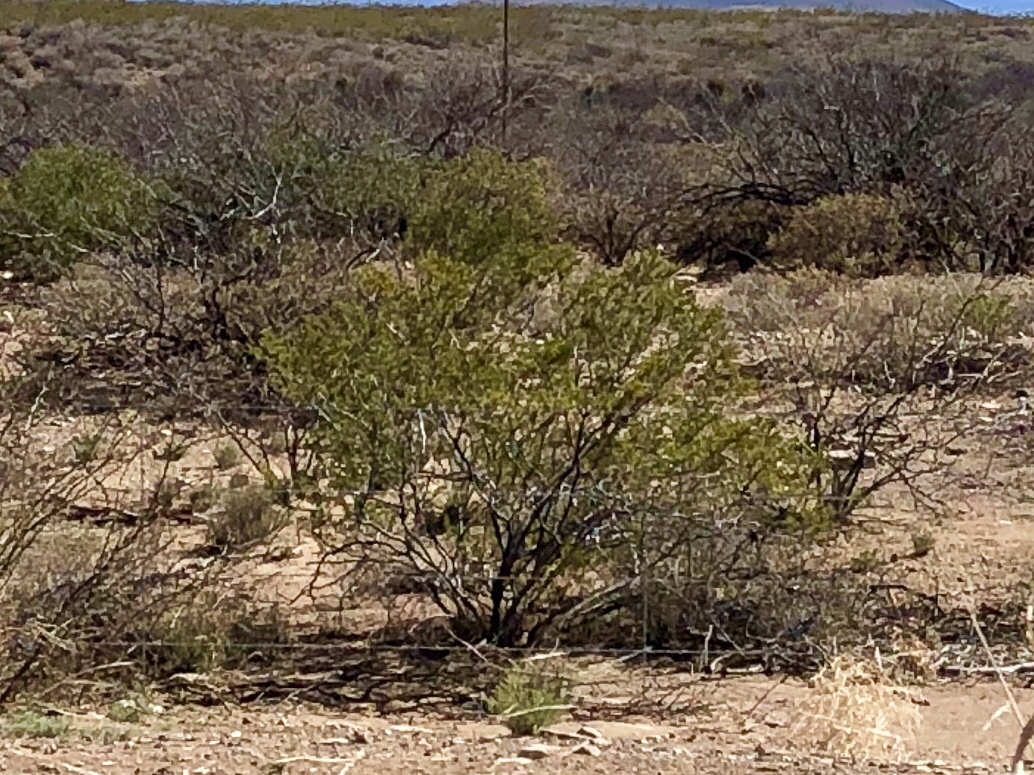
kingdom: Plantae
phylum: Tracheophyta
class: Magnoliopsida
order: Zygophyllales
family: Zygophyllaceae
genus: Larrea
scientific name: Larrea tridentata
